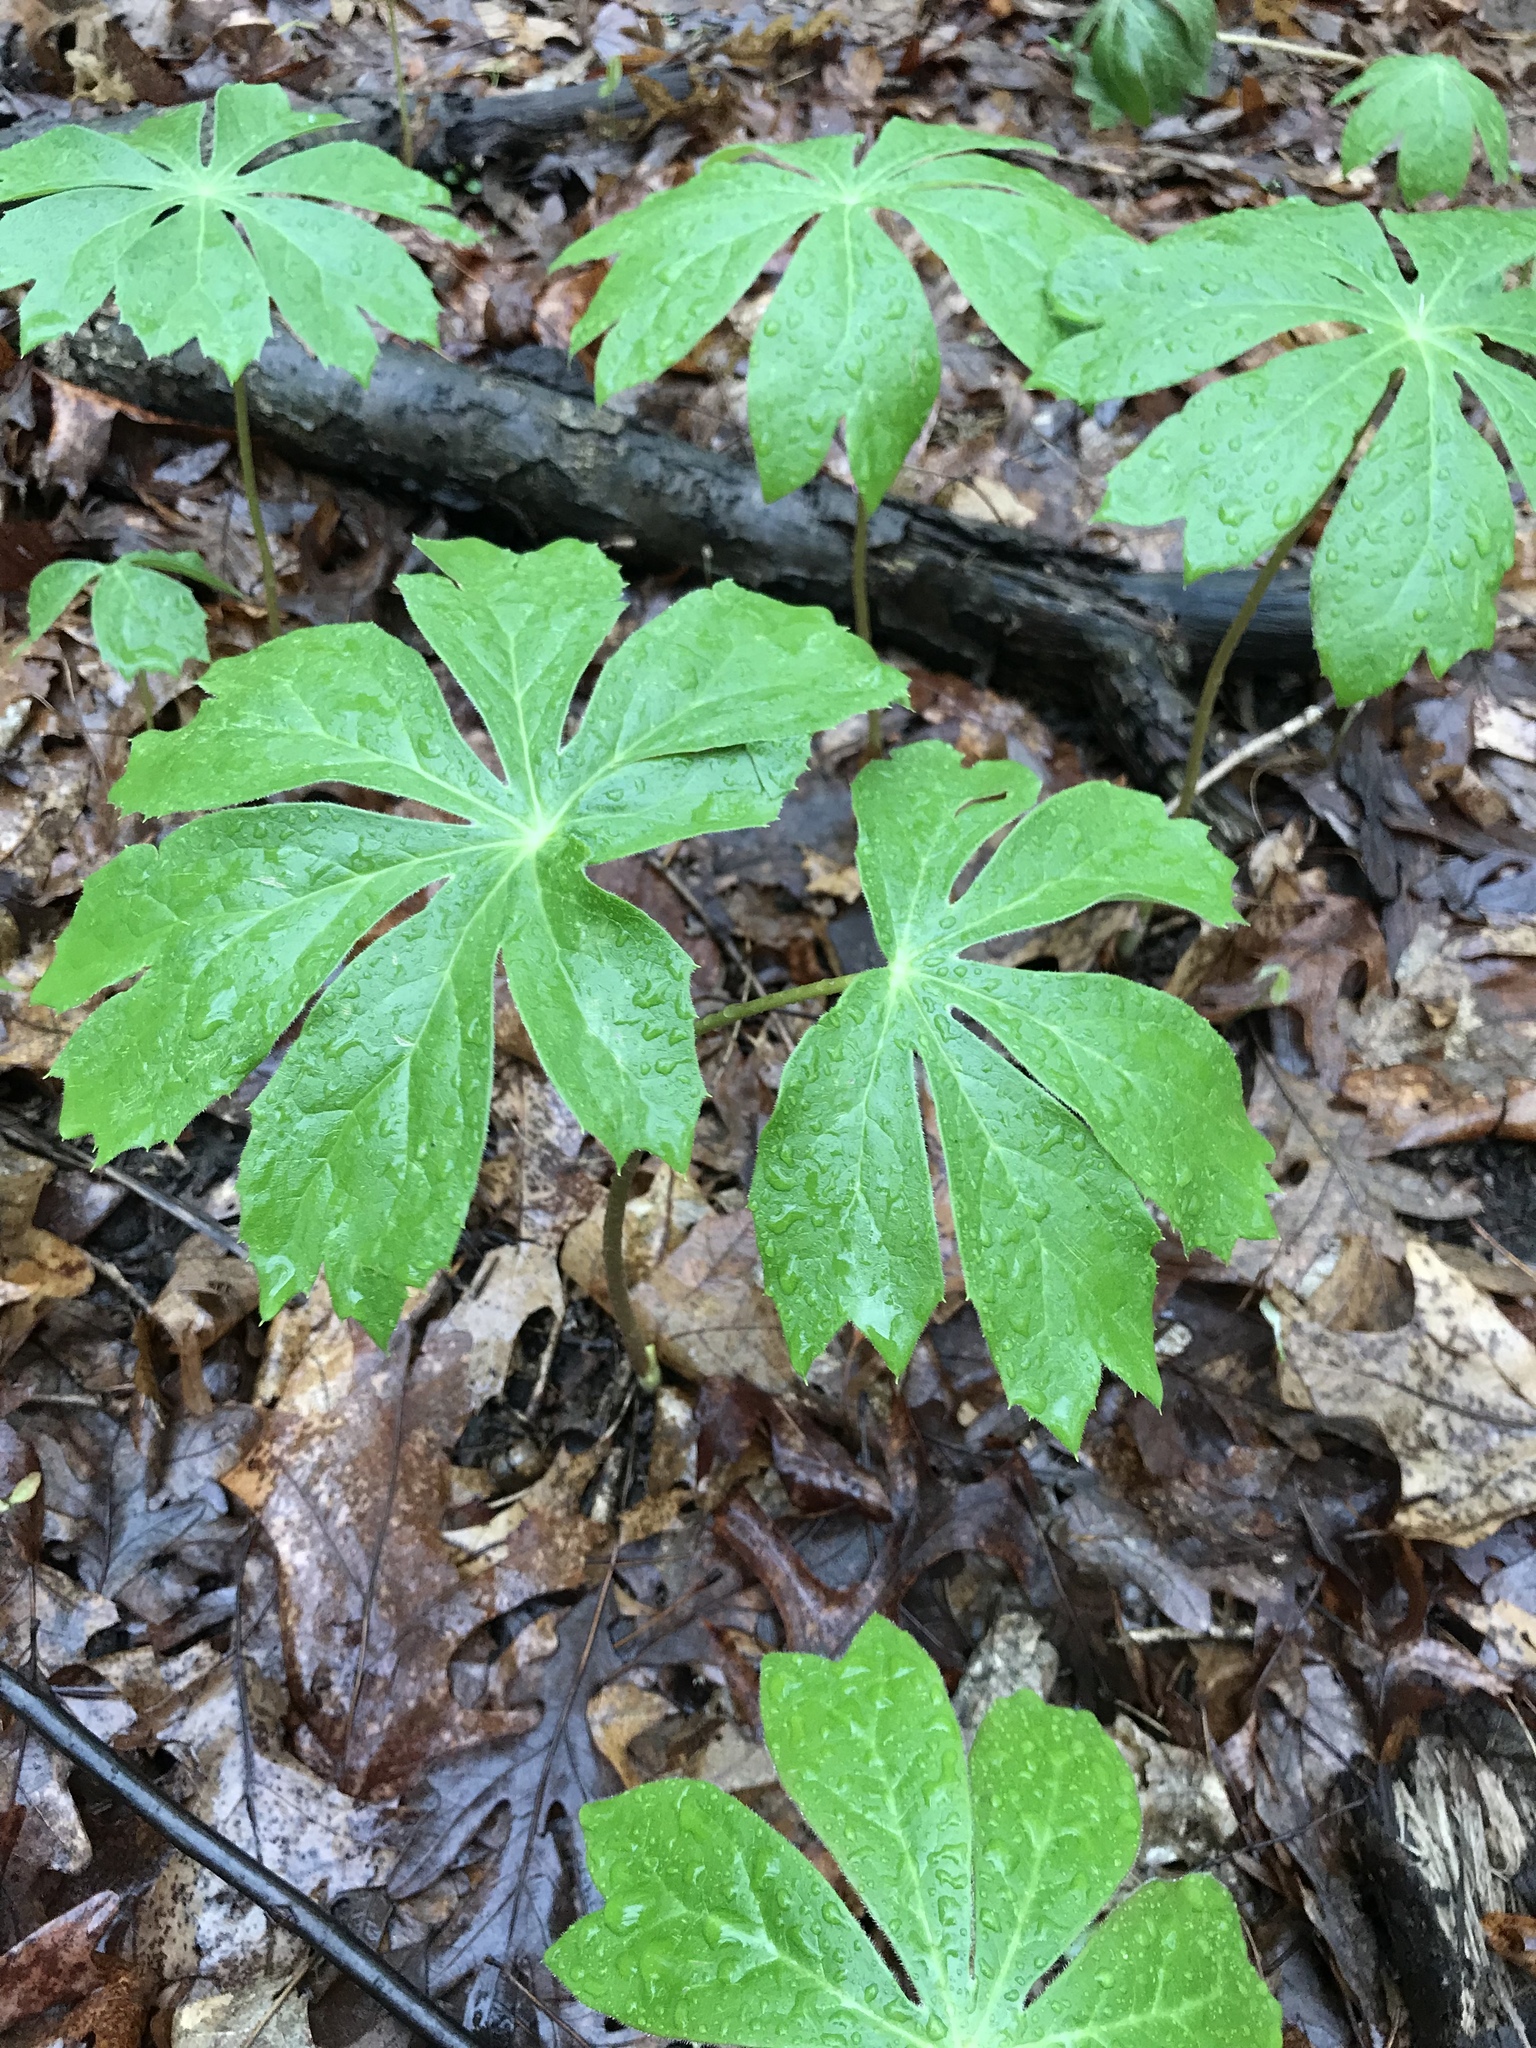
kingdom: Plantae
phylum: Tracheophyta
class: Magnoliopsida
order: Ranunculales
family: Berberidaceae
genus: Podophyllum
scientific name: Podophyllum peltatum
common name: Wild mandrake
